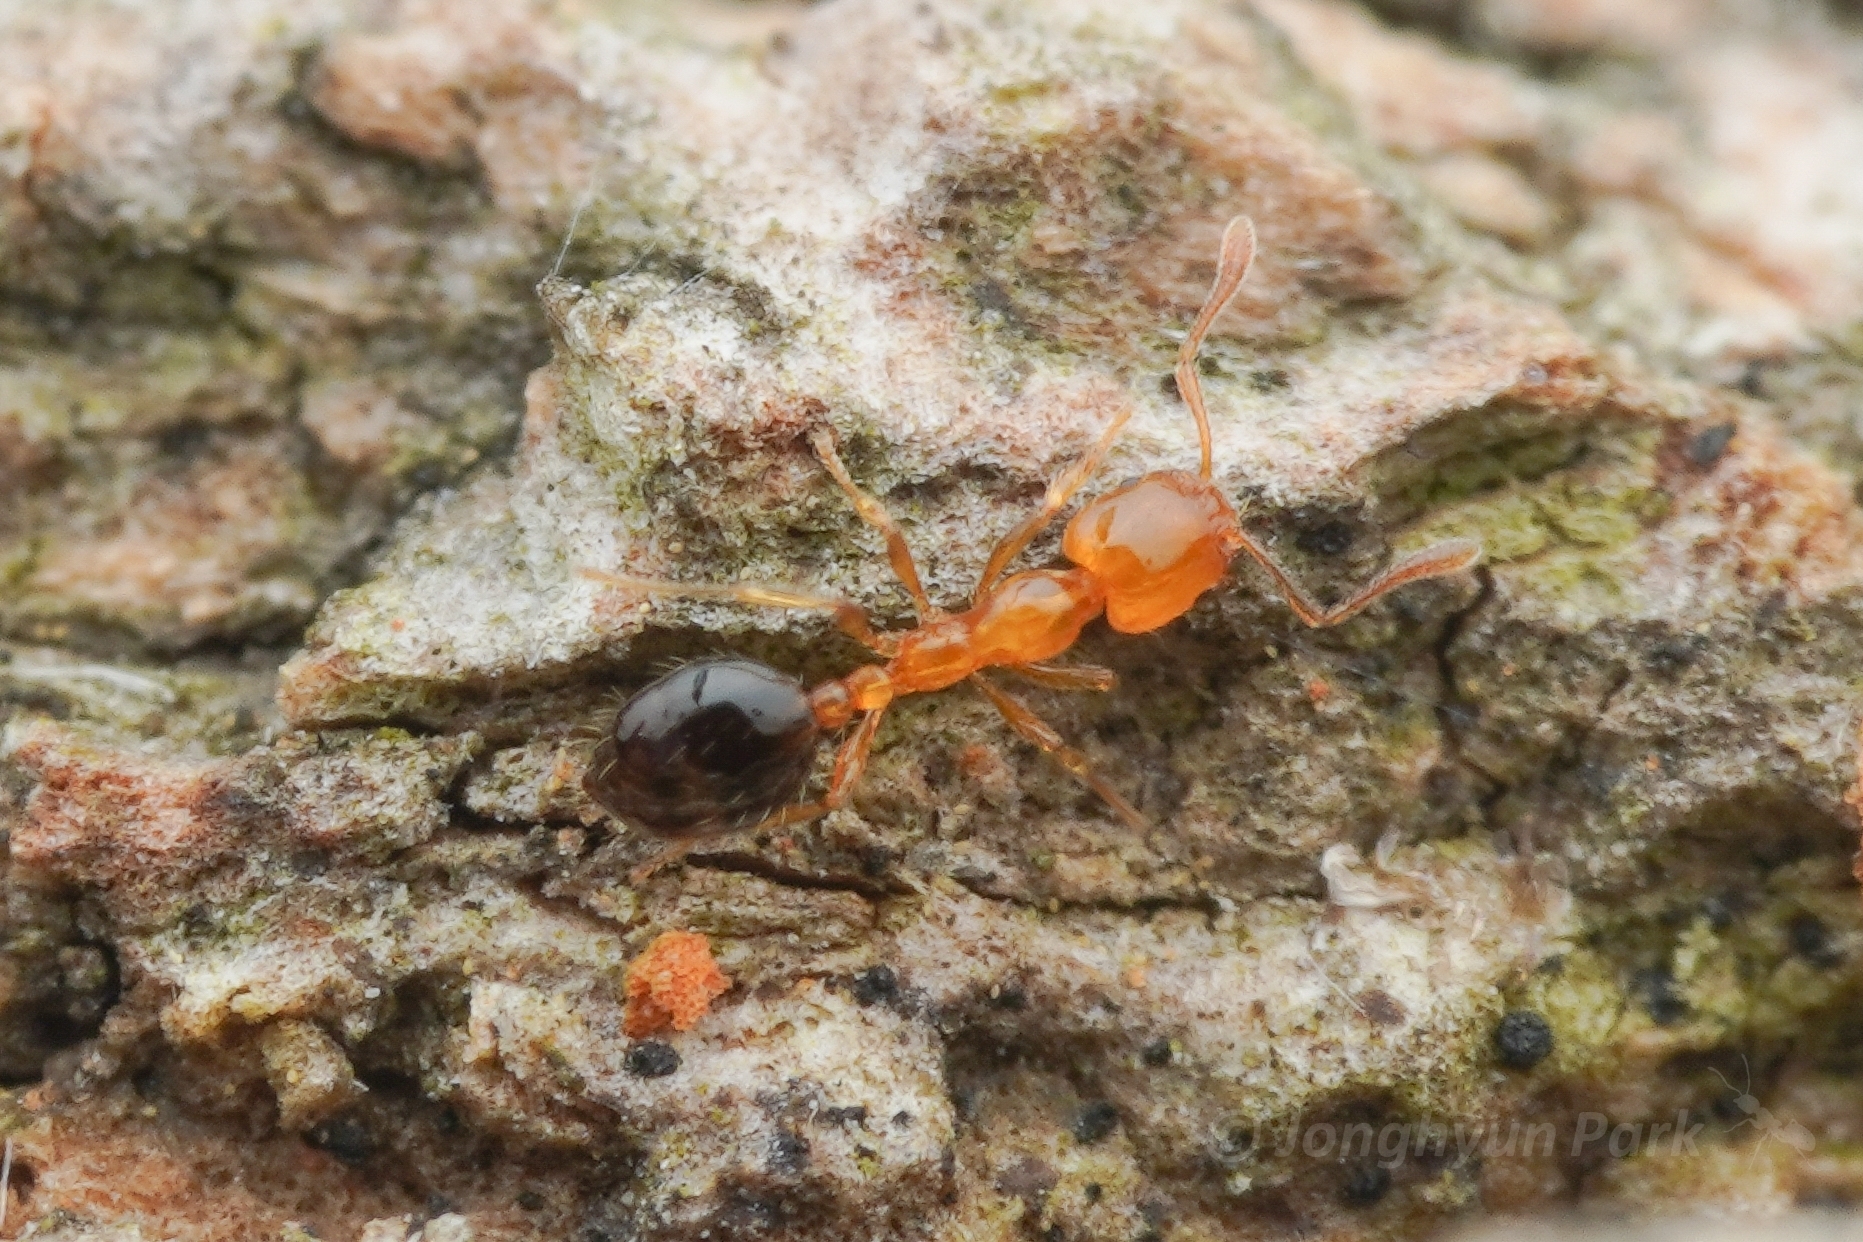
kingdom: Animalia
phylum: Arthropoda
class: Insecta
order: Hymenoptera
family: Formicidae
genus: Monomorium
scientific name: Monomorium intrudens
